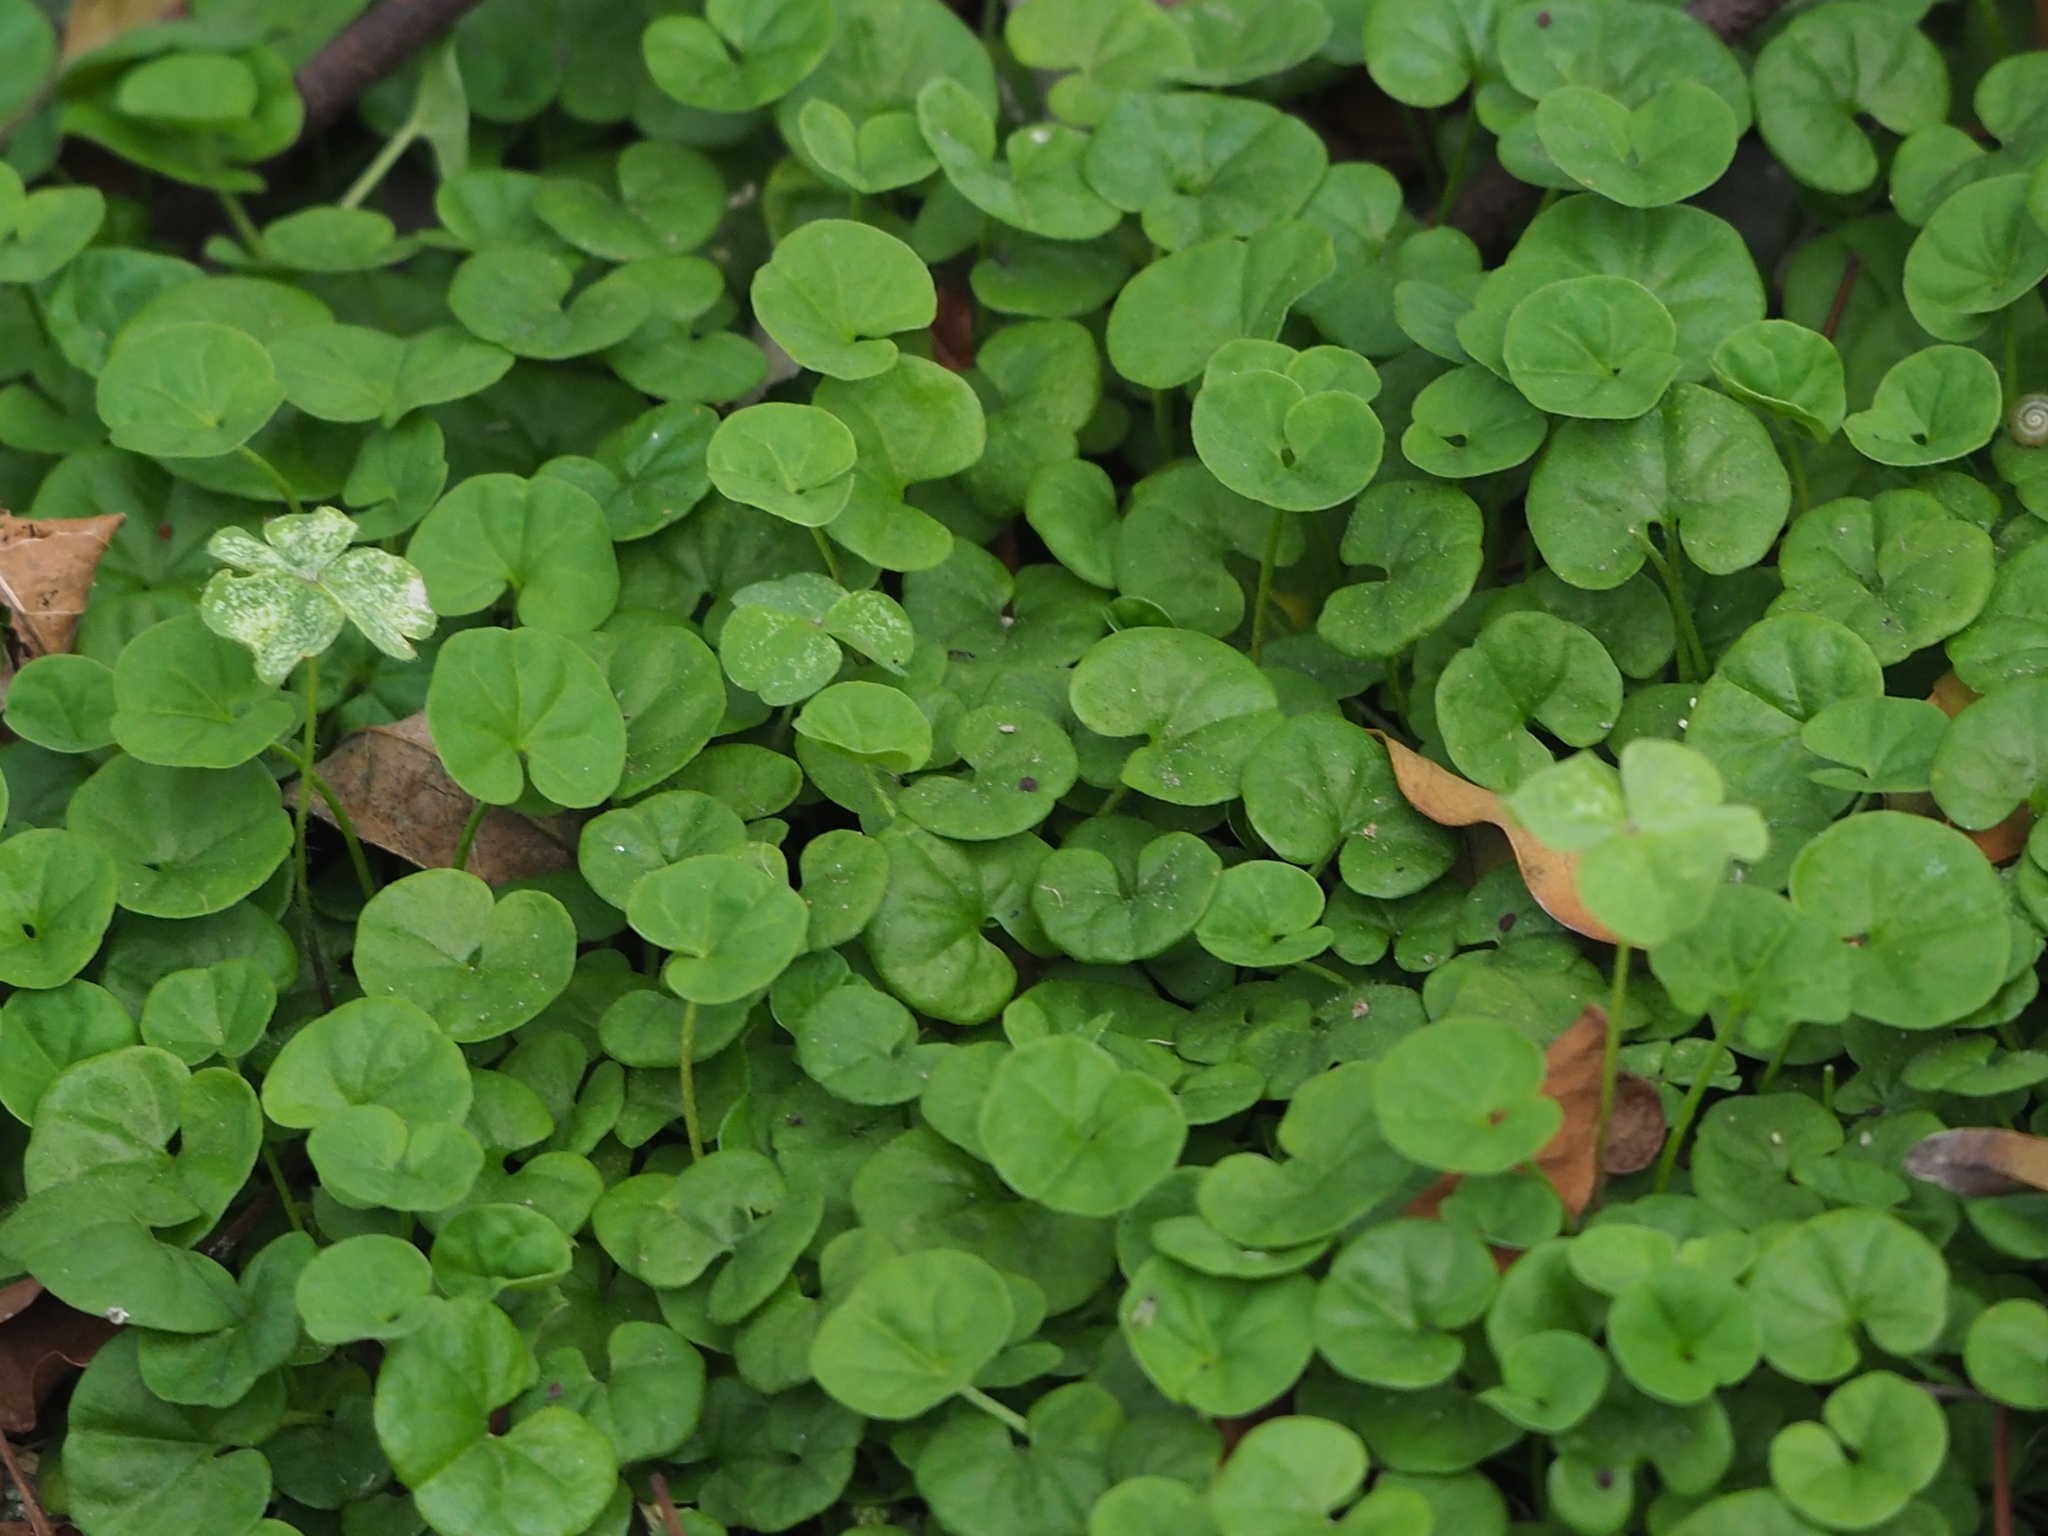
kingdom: Plantae
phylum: Tracheophyta
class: Magnoliopsida
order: Solanales
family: Convolvulaceae
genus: Dichondra
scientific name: Dichondra micrantha
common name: Kidneyweed
